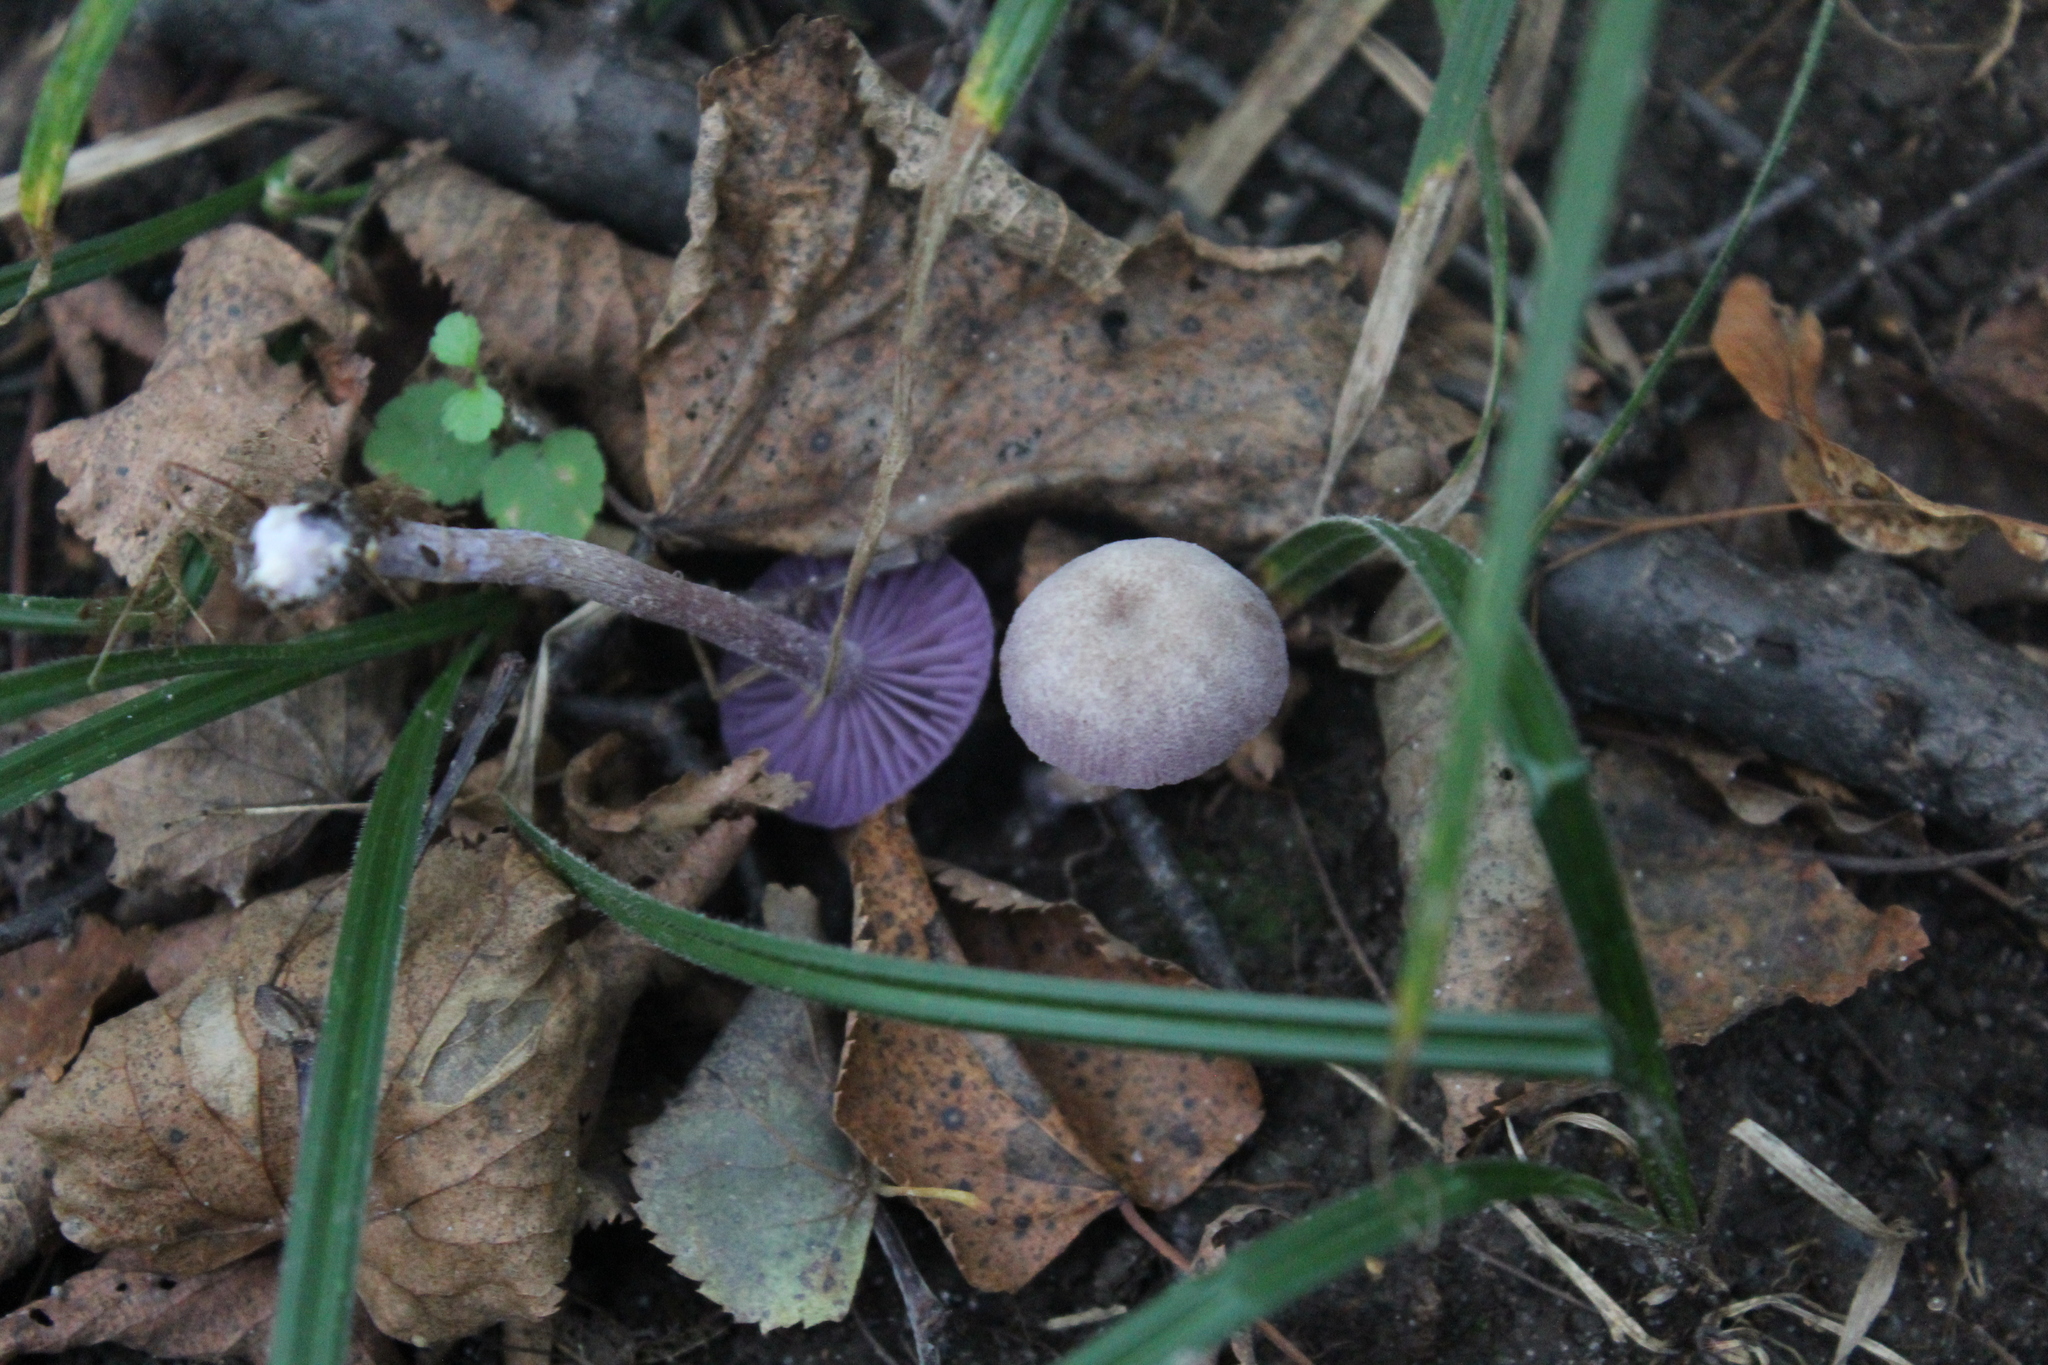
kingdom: Fungi
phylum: Basidiomycota
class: Agaricomycetes
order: Agaricales
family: Hydnangiaceae
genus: Laccaria
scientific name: Laccaria amethystina
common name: Amethyst deceiver
